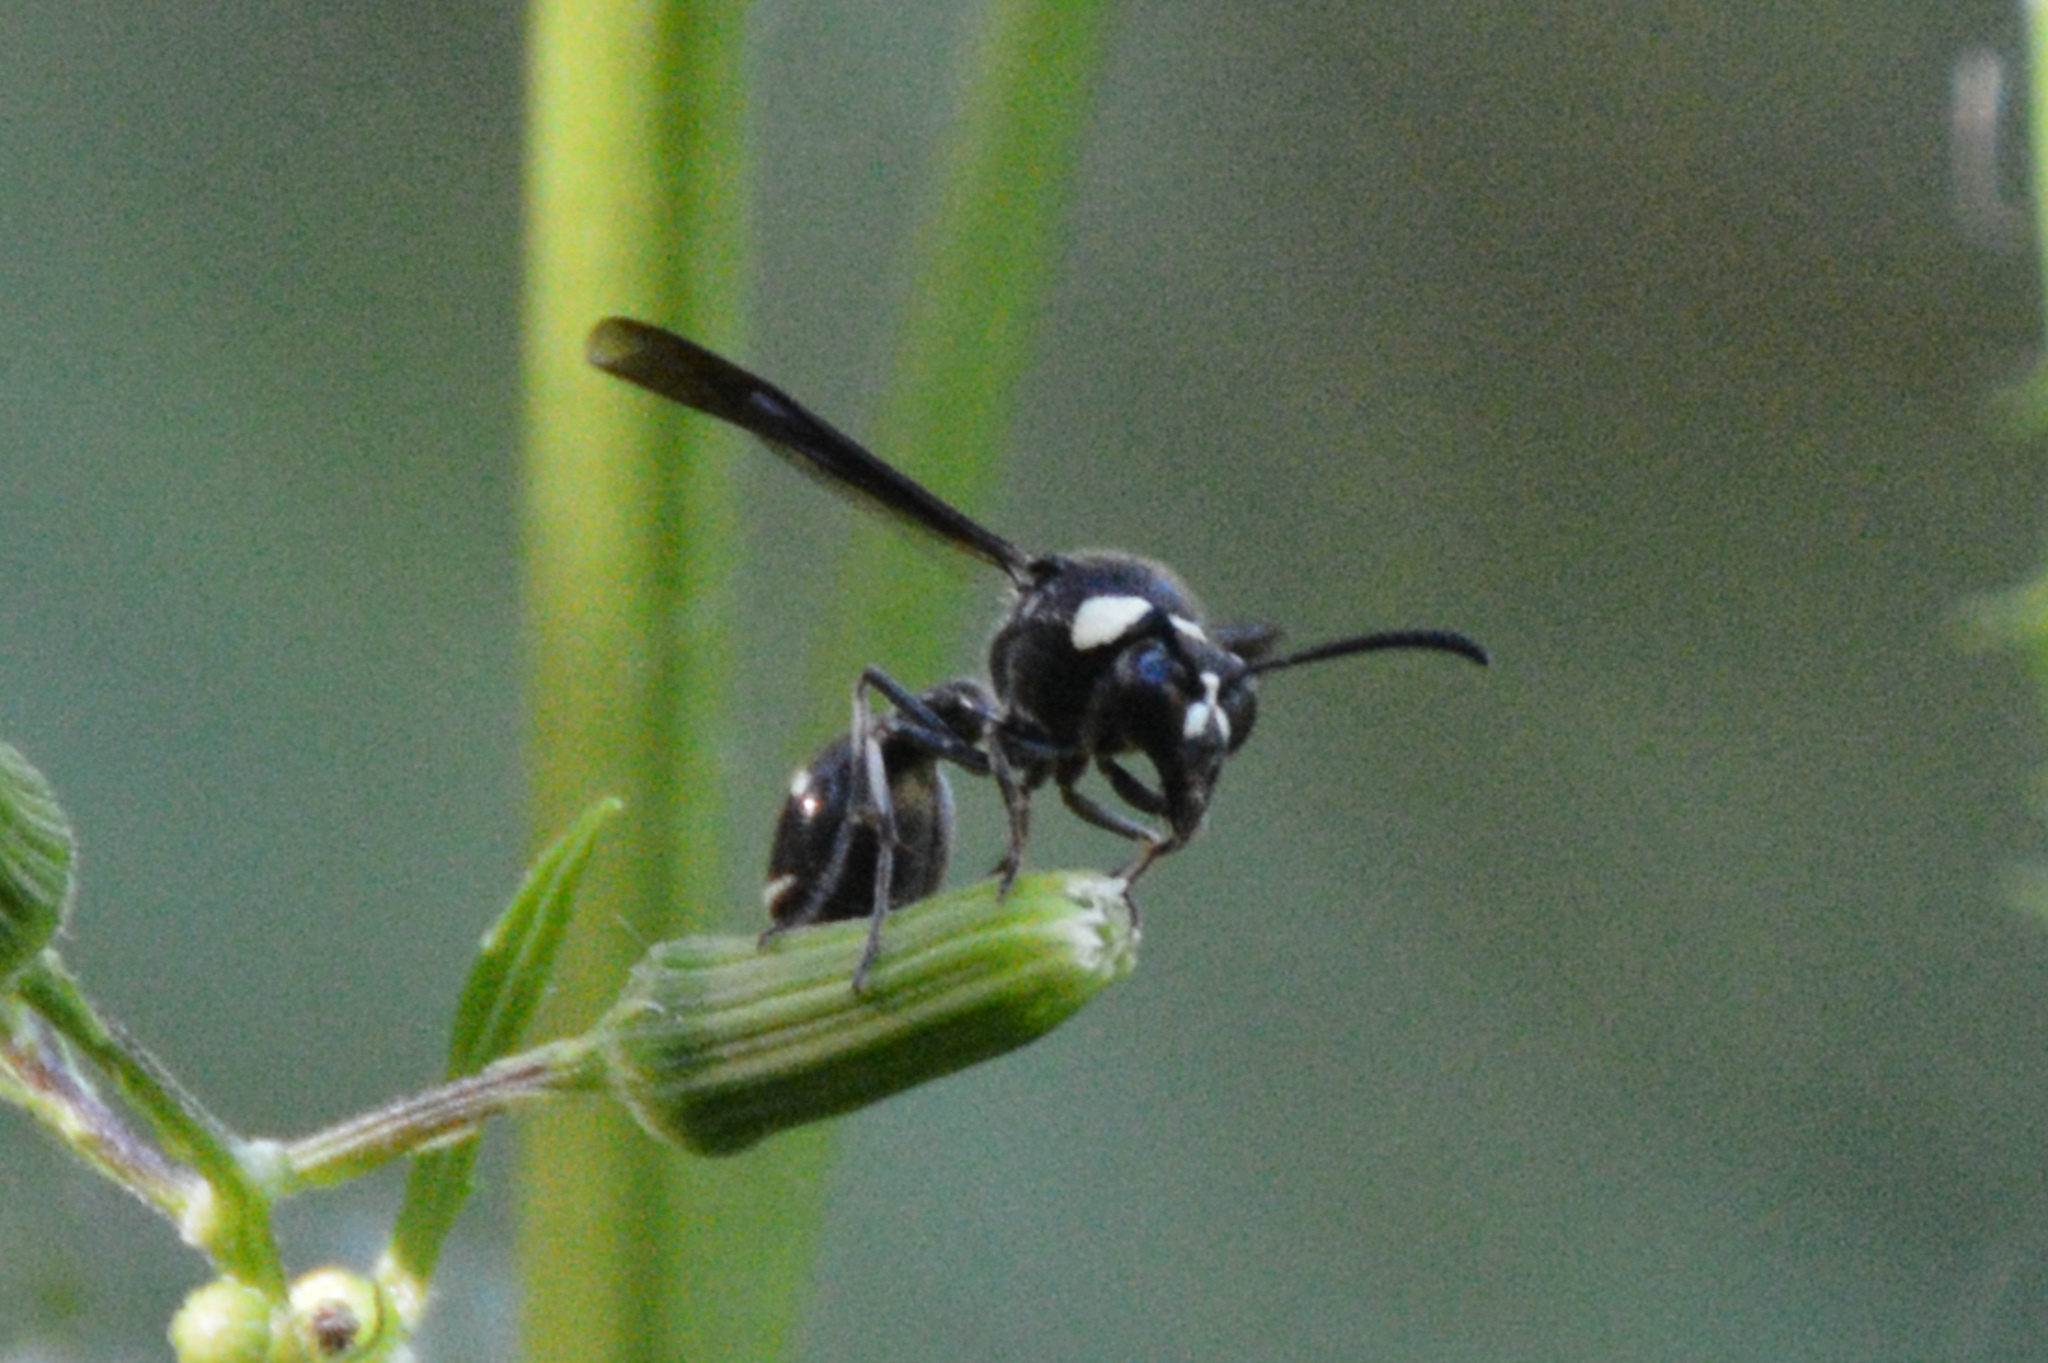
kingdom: Animalia
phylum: Arthropoda
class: Insecta
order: Hymenoptera
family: Vespidae
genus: Eumenes
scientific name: Eumenes fraternus
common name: Fraternal potter wasp
